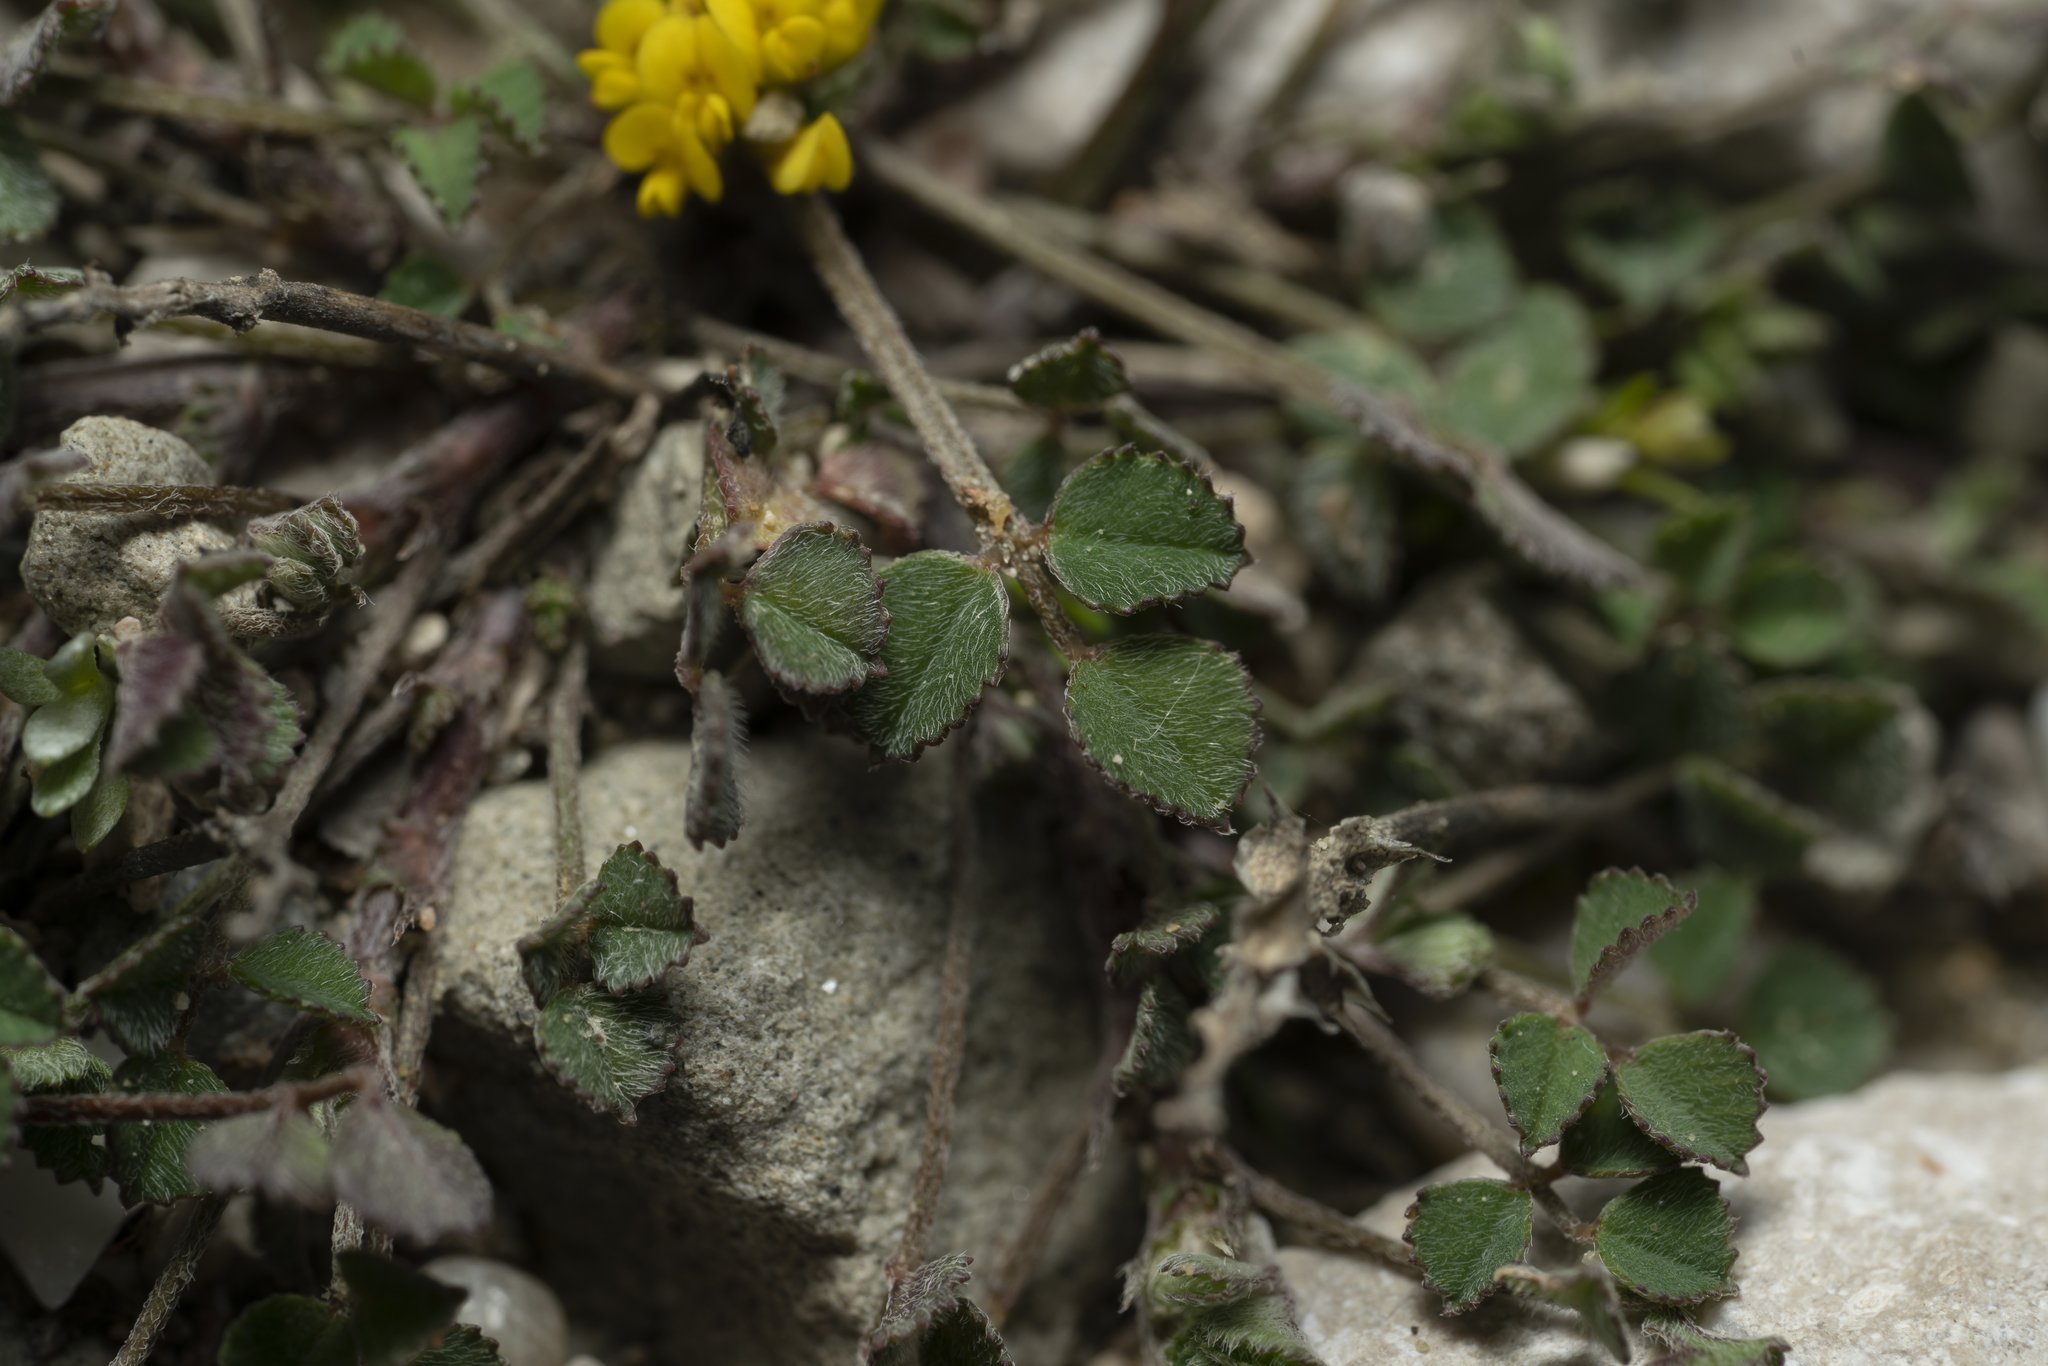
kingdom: Plantae
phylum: Tracheophyta
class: Magnoliopsida
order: Fabales
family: Fabaceae
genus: Medicago
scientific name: Medicago monspeliaca
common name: Hairy medick
